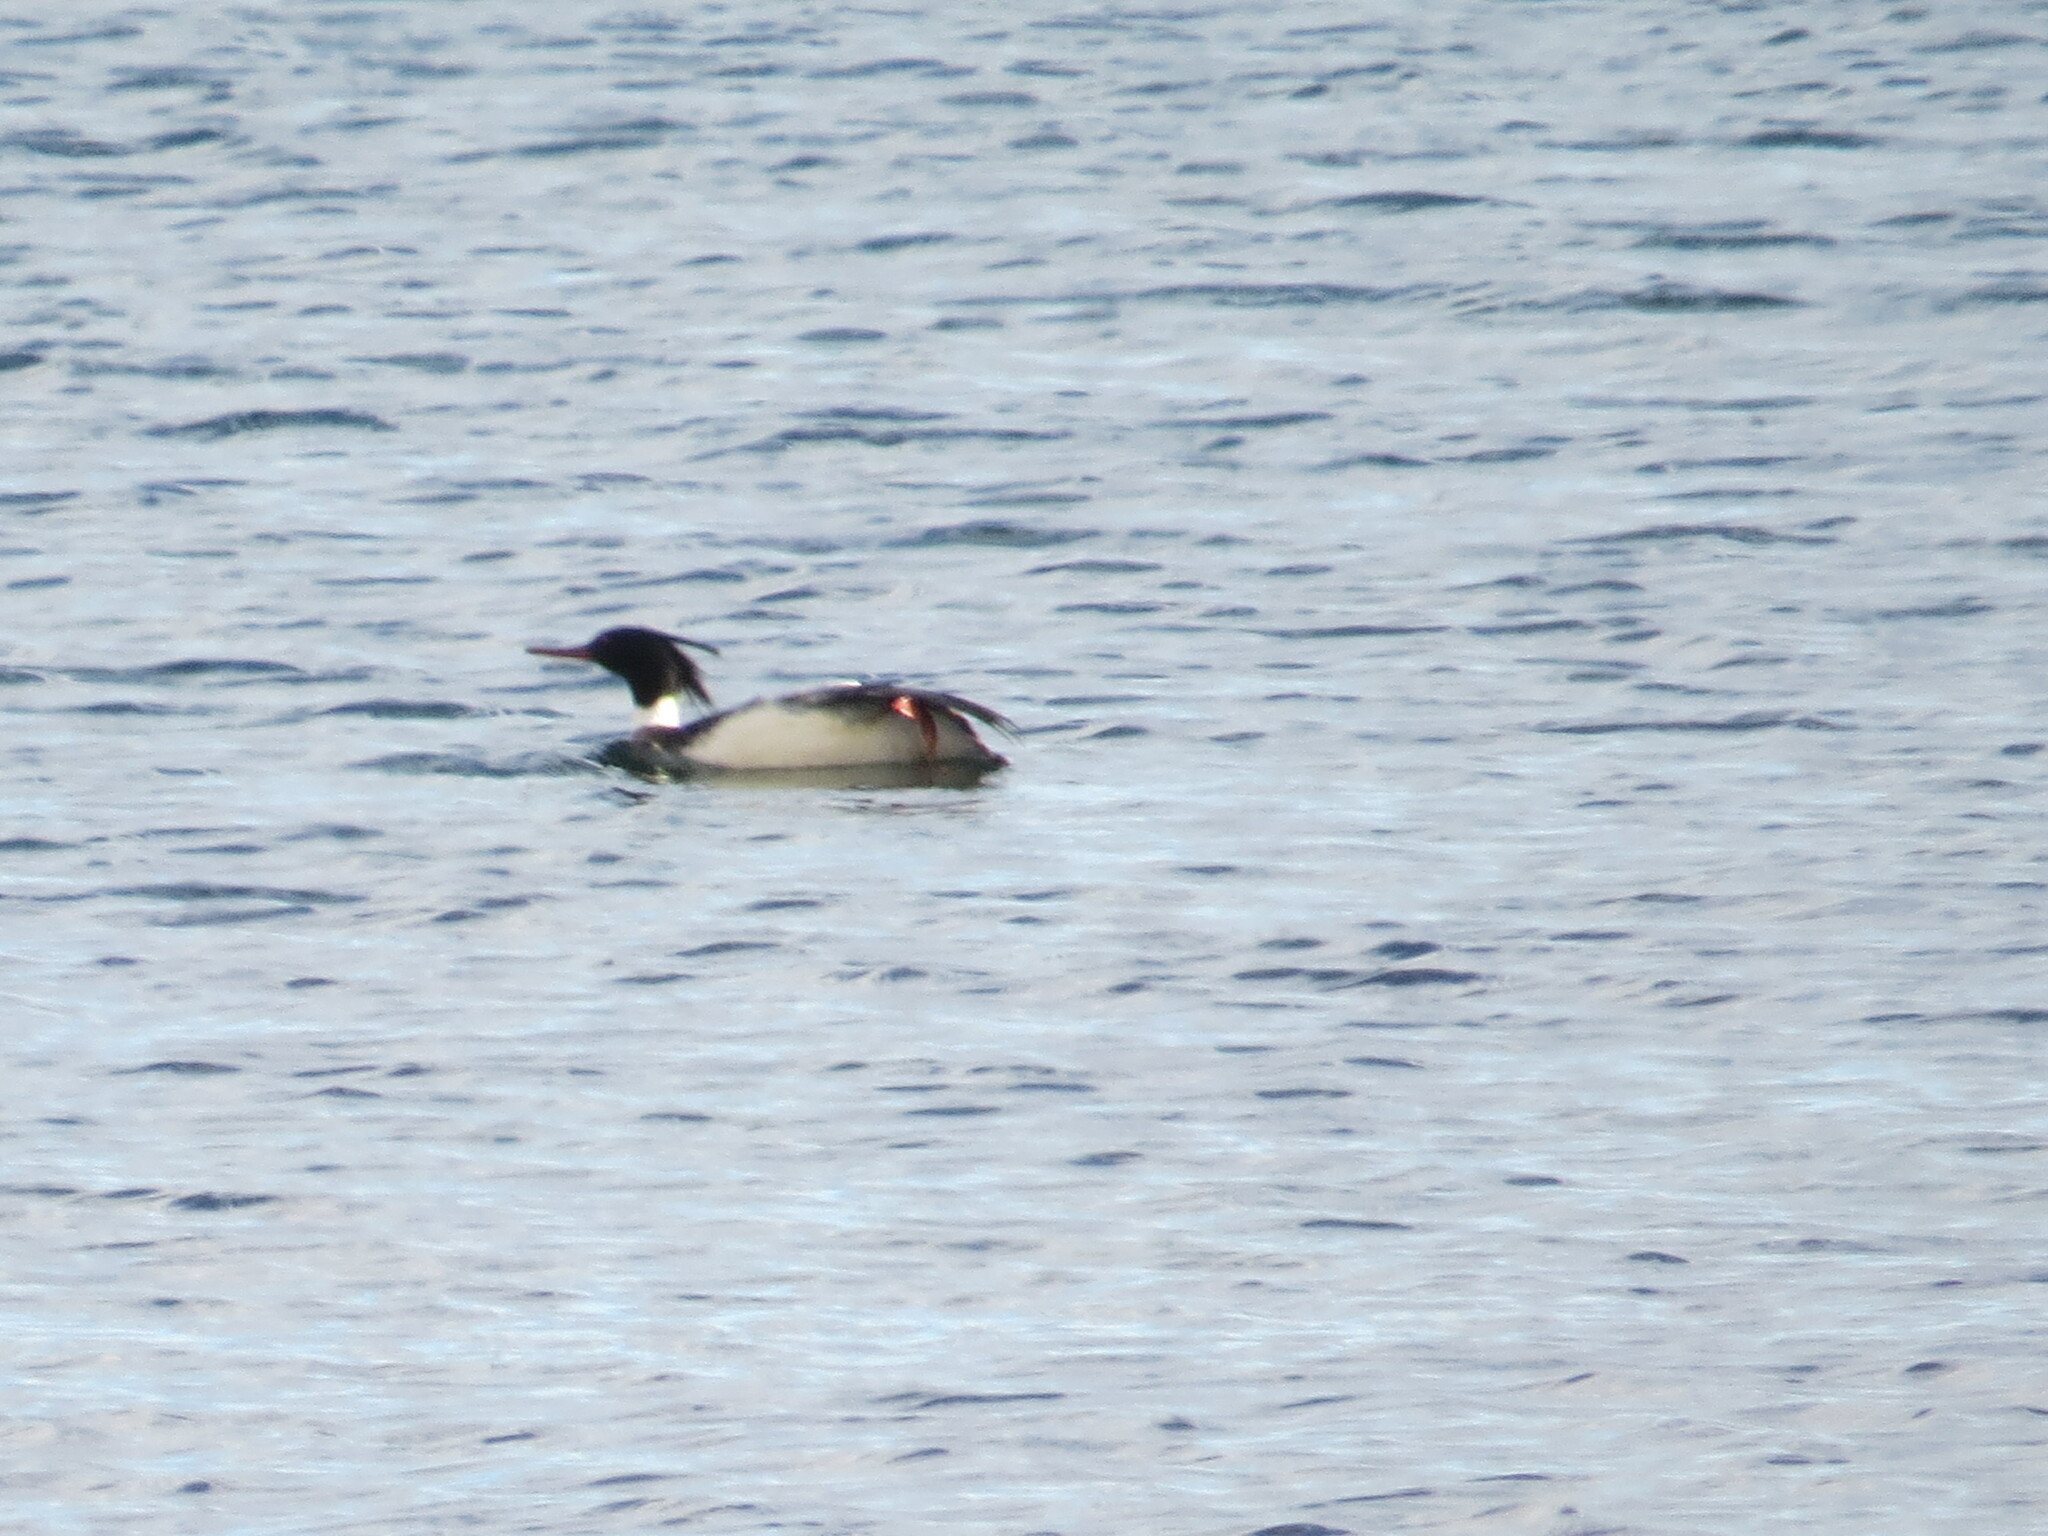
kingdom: Animalia
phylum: Chordata
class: Aves
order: Anseriformes
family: Anatidae
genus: Mergus
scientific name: Mergus serrator
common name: Red-breasted merganser
